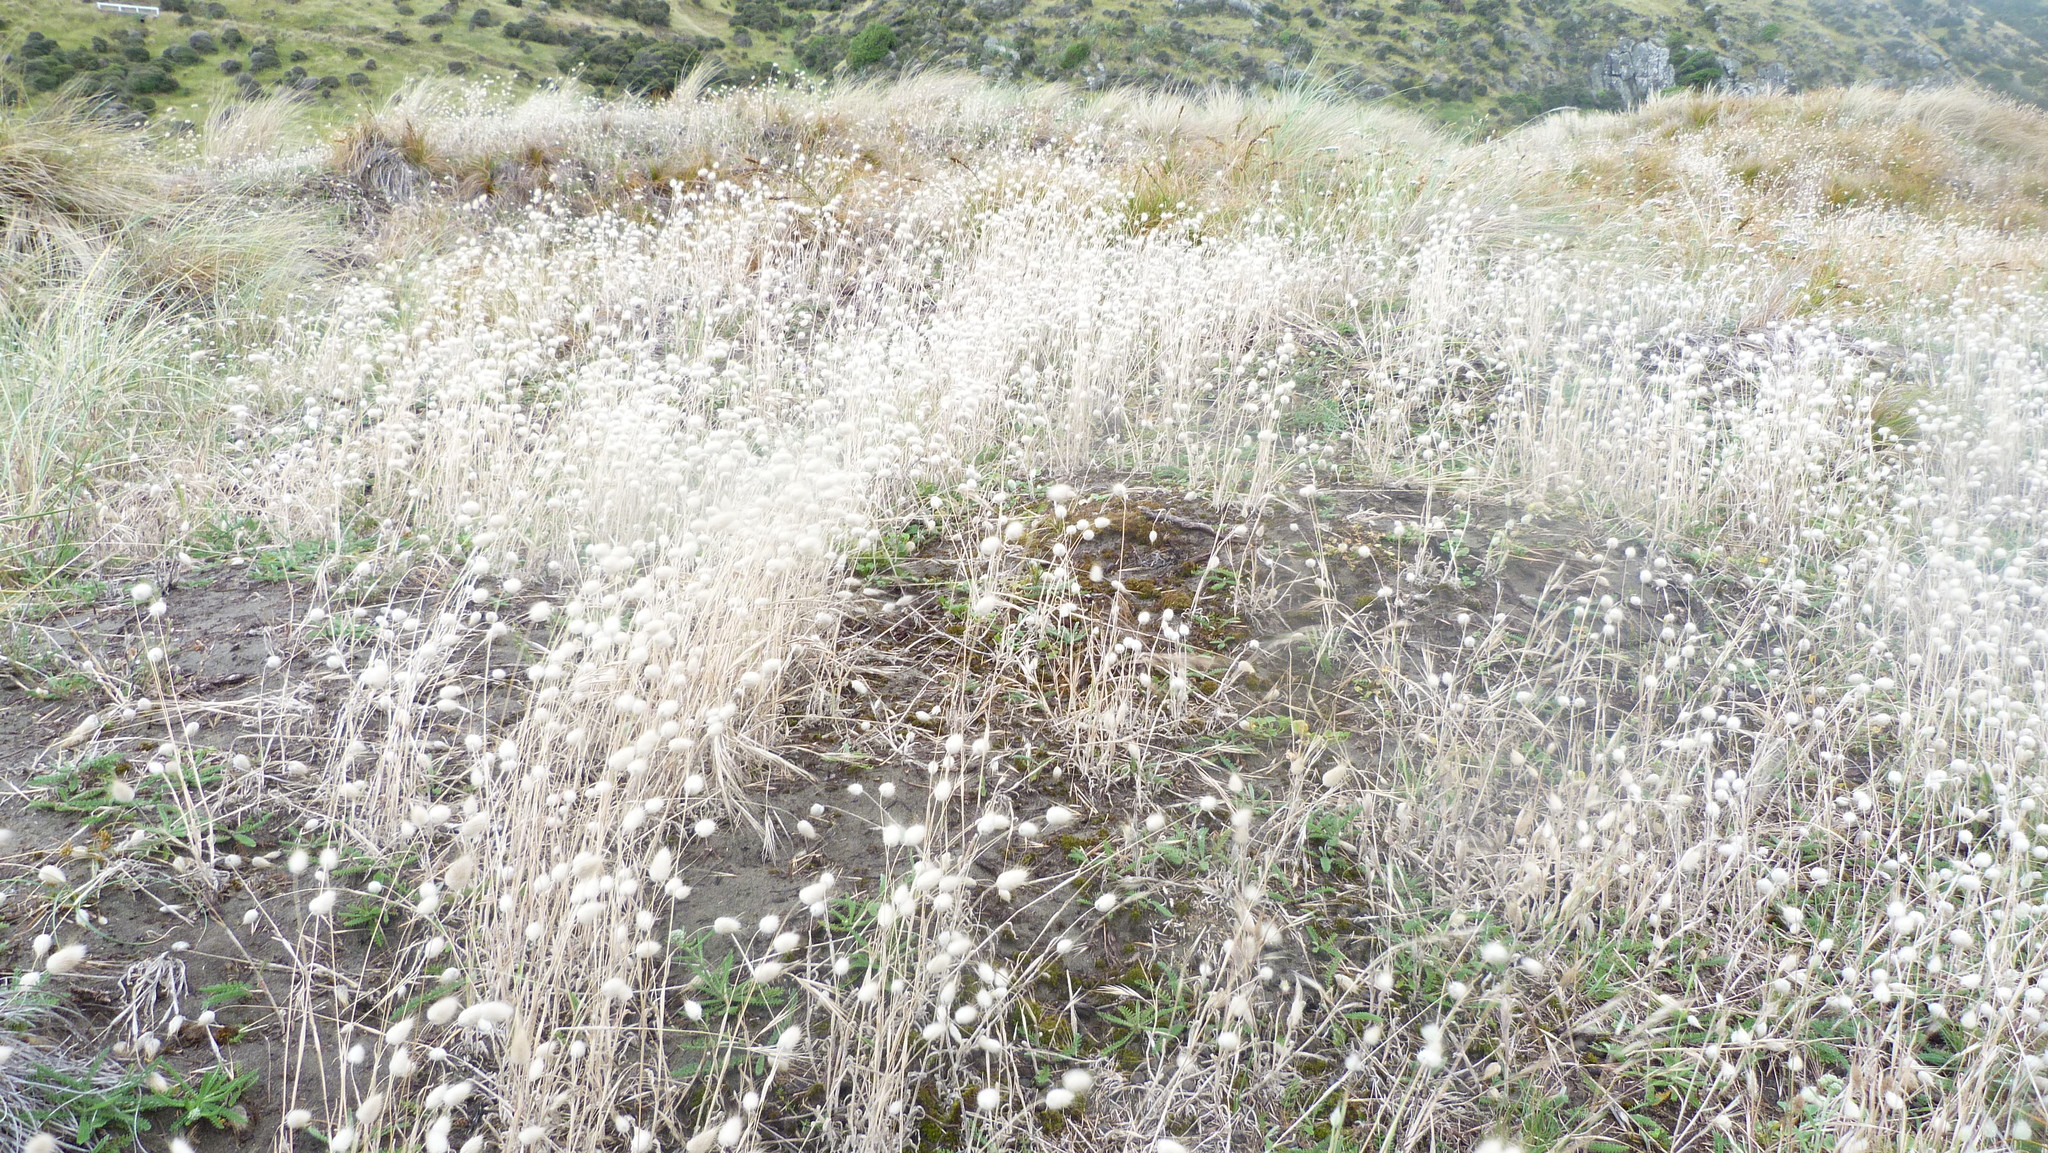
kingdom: Plantae
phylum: Tracheophyta
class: Liliopsida
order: Poales
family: Poaceae
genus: Lagurus
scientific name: Lagurus ovatus
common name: Hare's-tail
